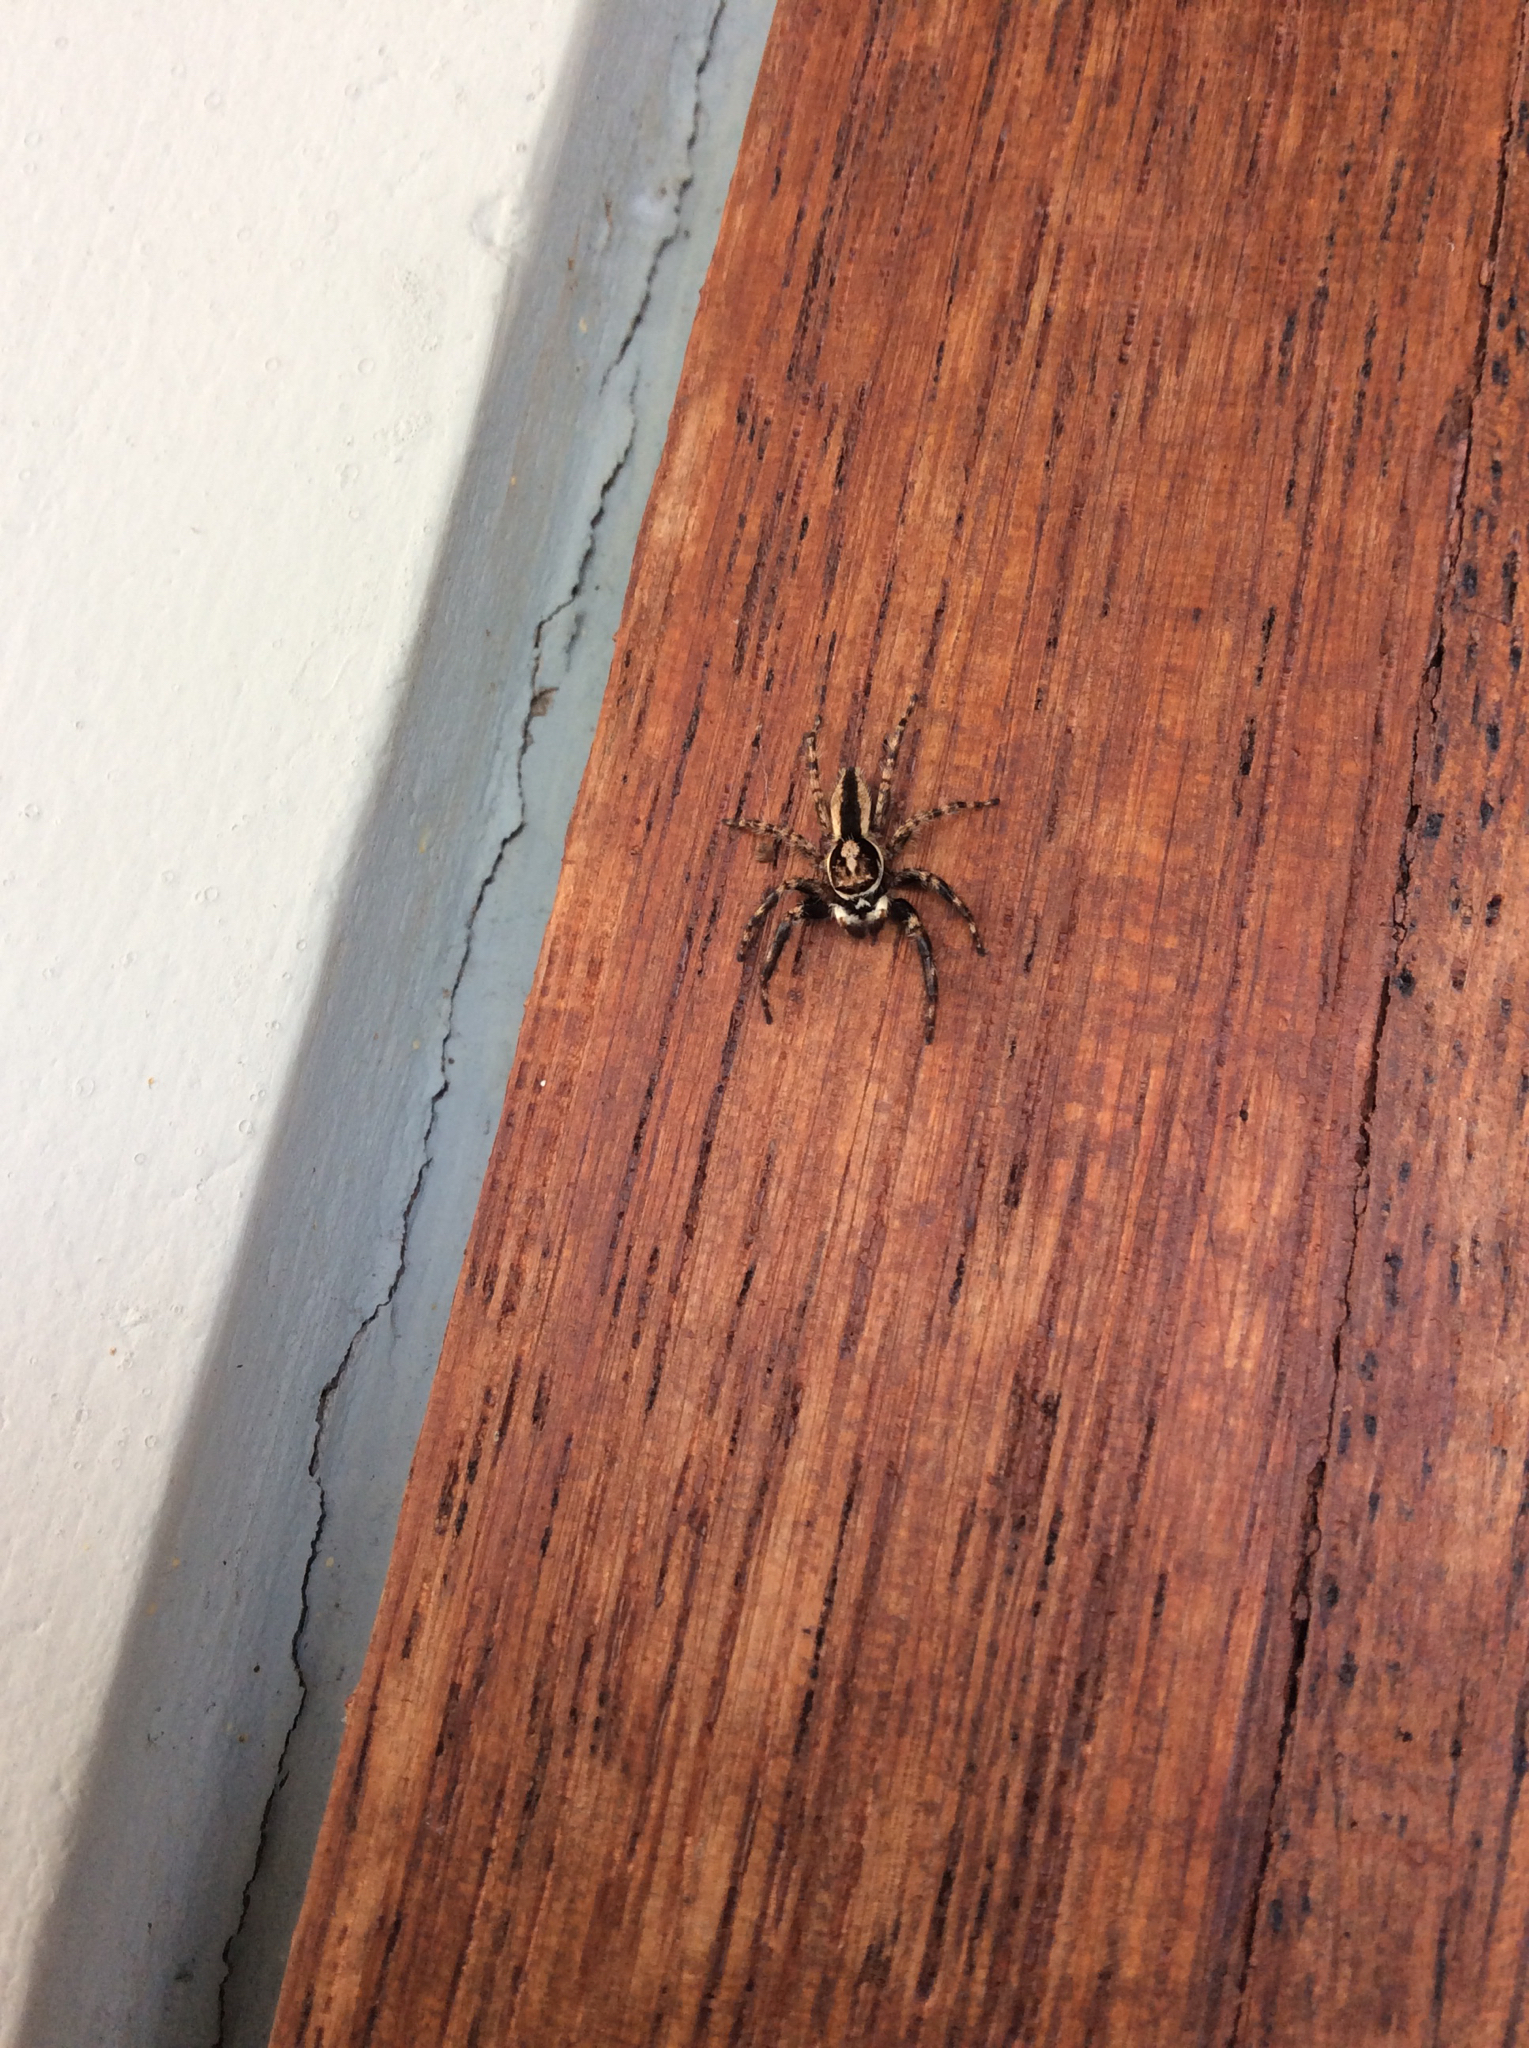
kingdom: Animalia
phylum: Arthropoda
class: Arachnida
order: Araneae
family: Salticidae
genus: Menemerus
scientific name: Menemerus bivittatus
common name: Gray wall jumper
